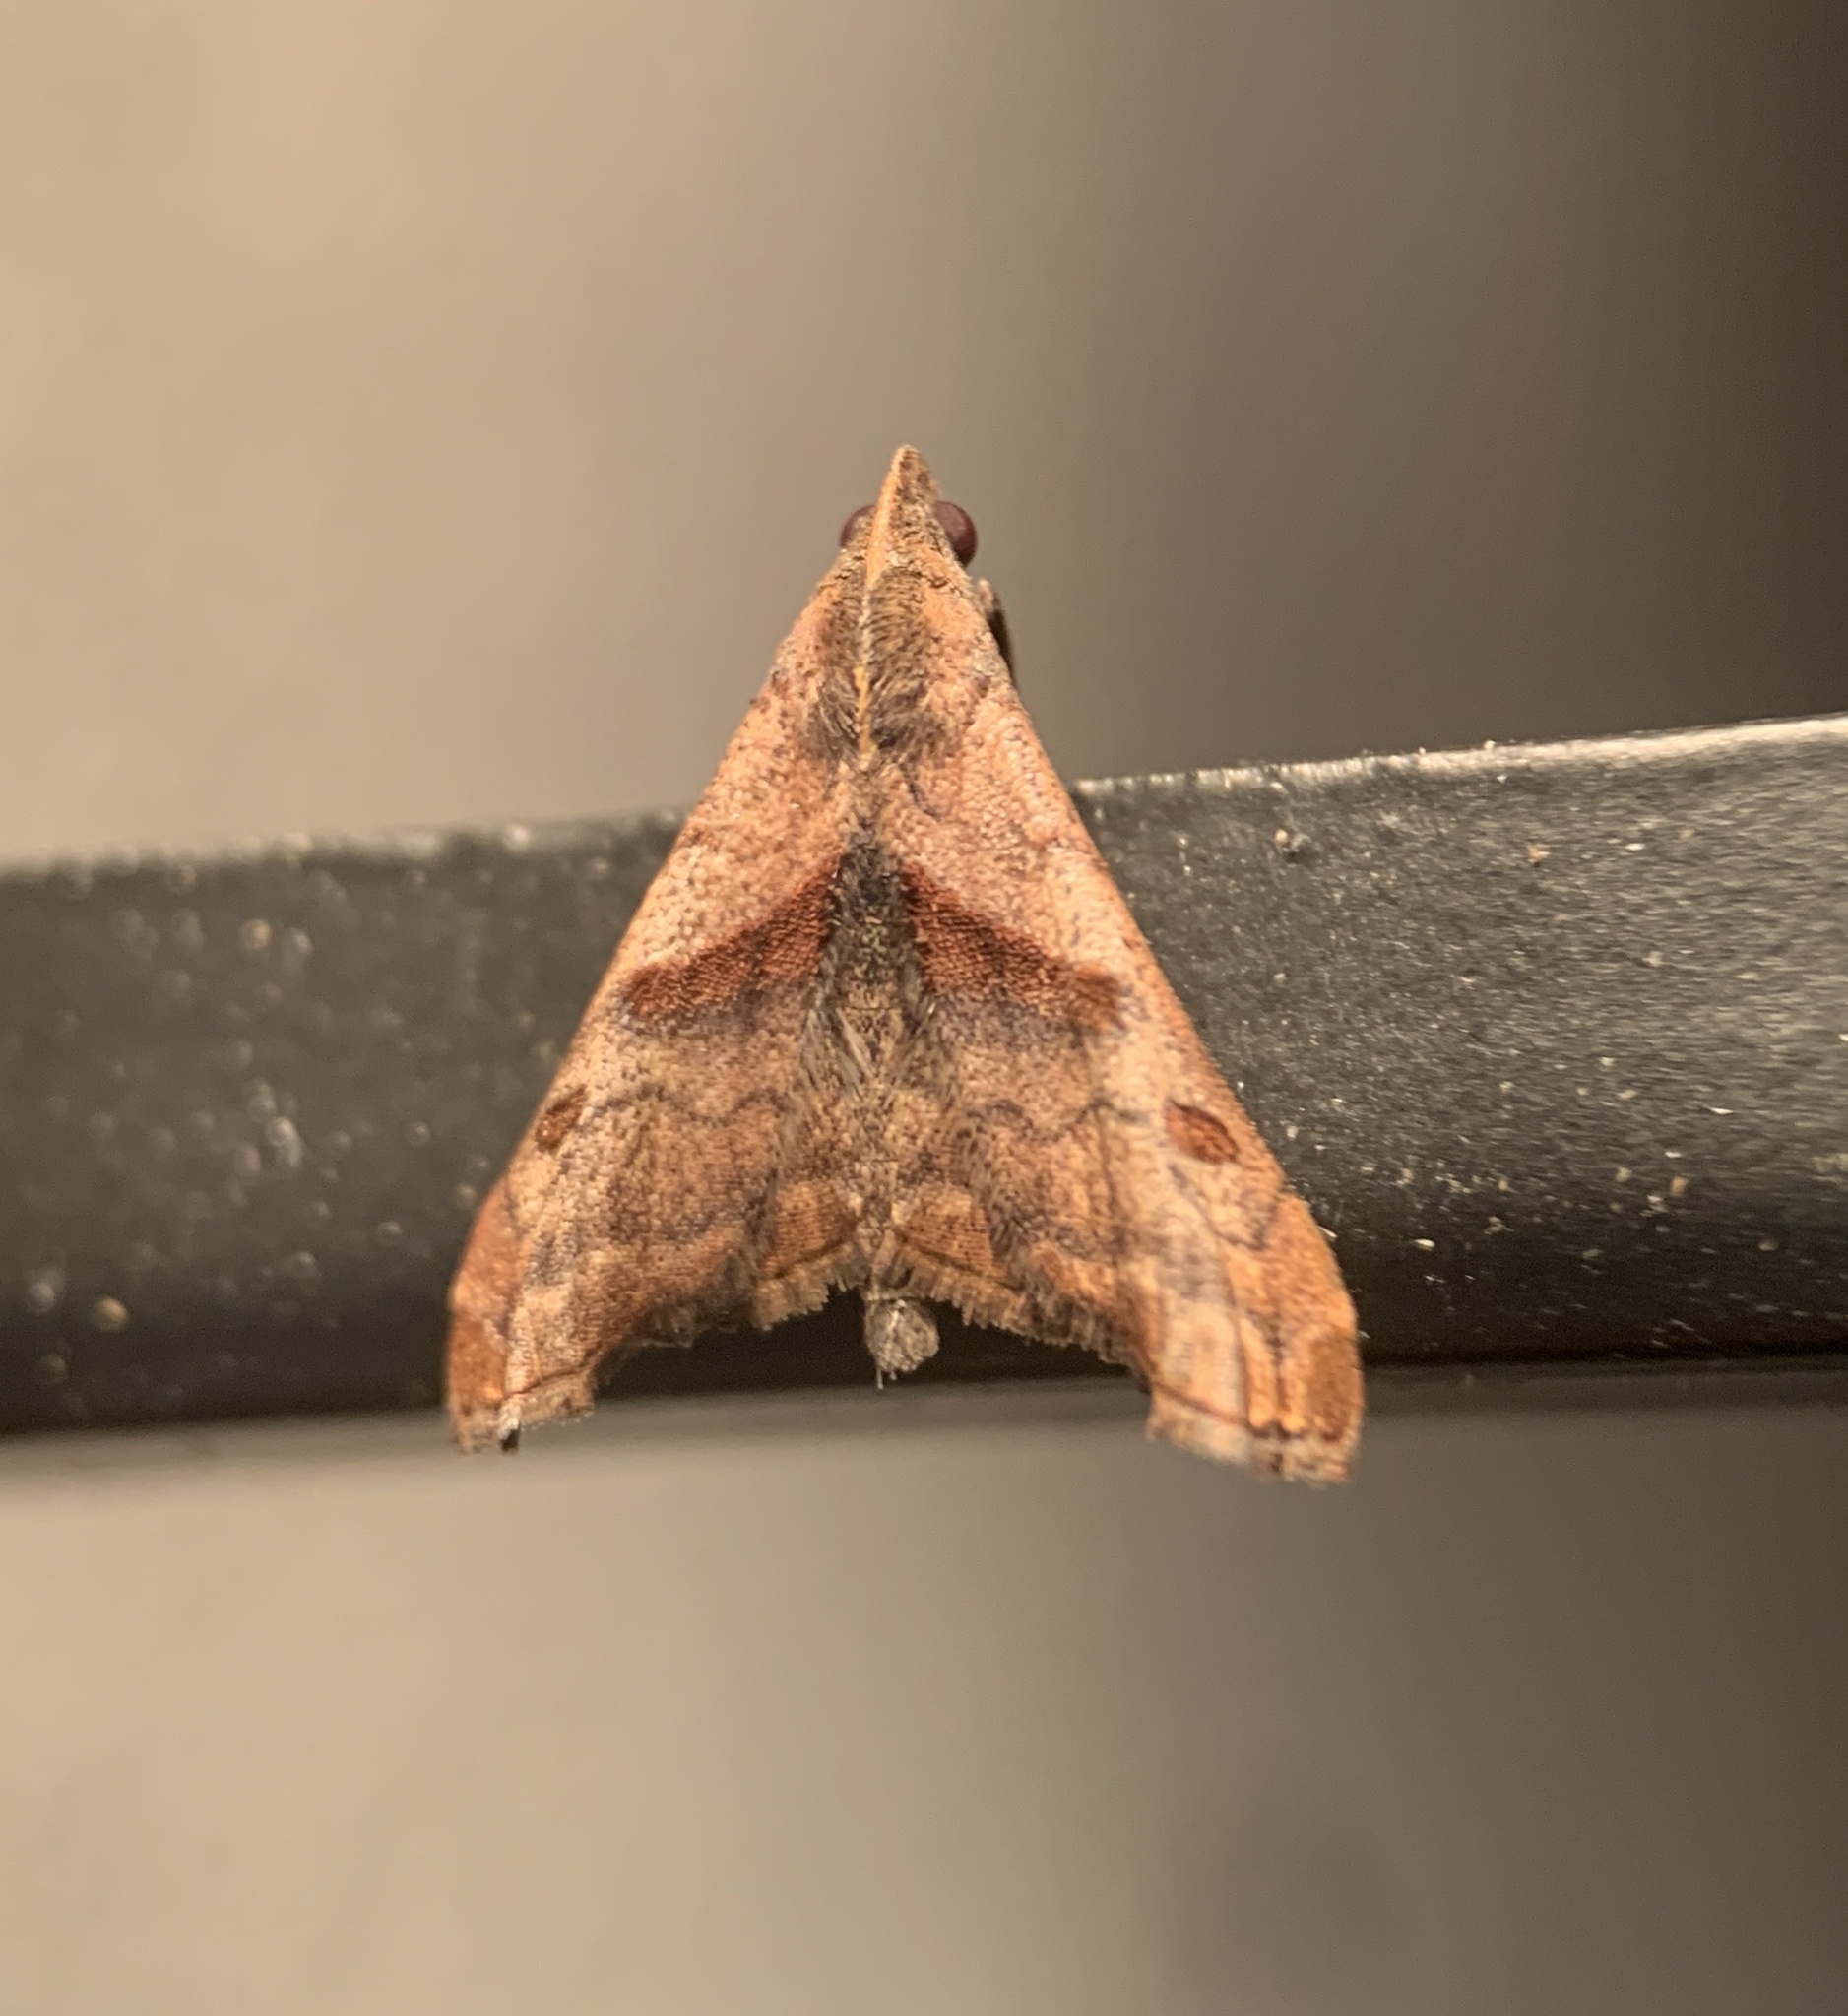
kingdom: Animalia
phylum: Arthropoda
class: Insecta
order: Lepidoptera
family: Erebidae
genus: Palthis
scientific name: Palthis angulalis
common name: Dark-spotted palthis moth
